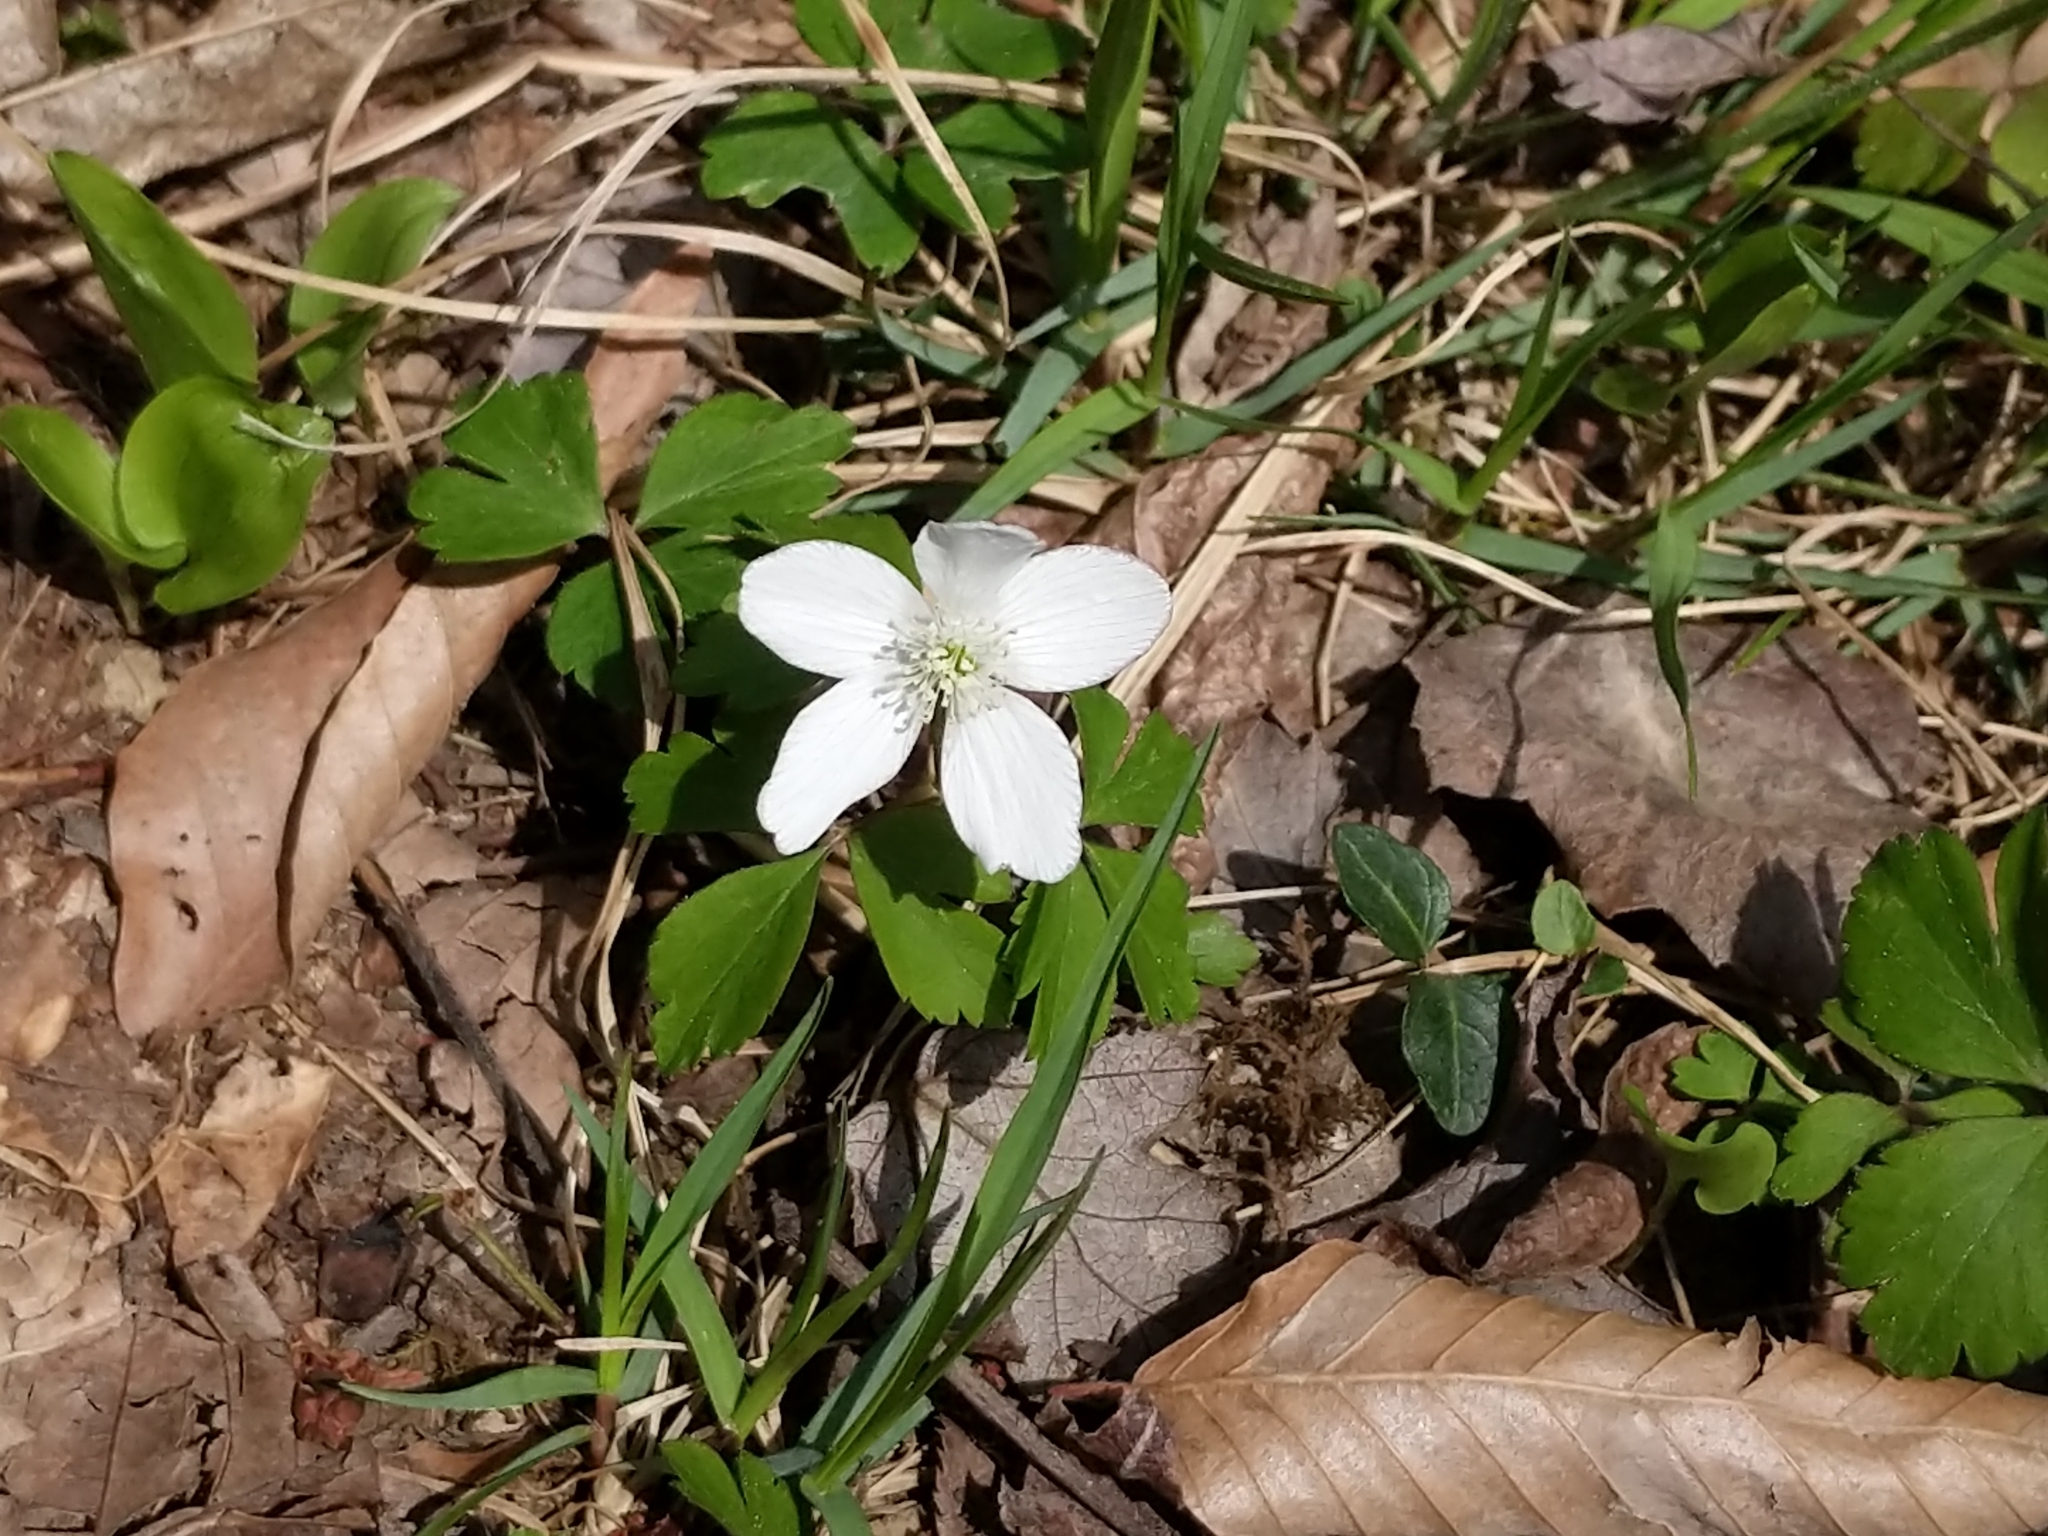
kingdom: Plantae
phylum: Tracheophyta
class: Magnoliopsida
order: Ranunculales
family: Ranunculaceae
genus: Anemone
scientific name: Anemone quinquefolia
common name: Wood anemone
